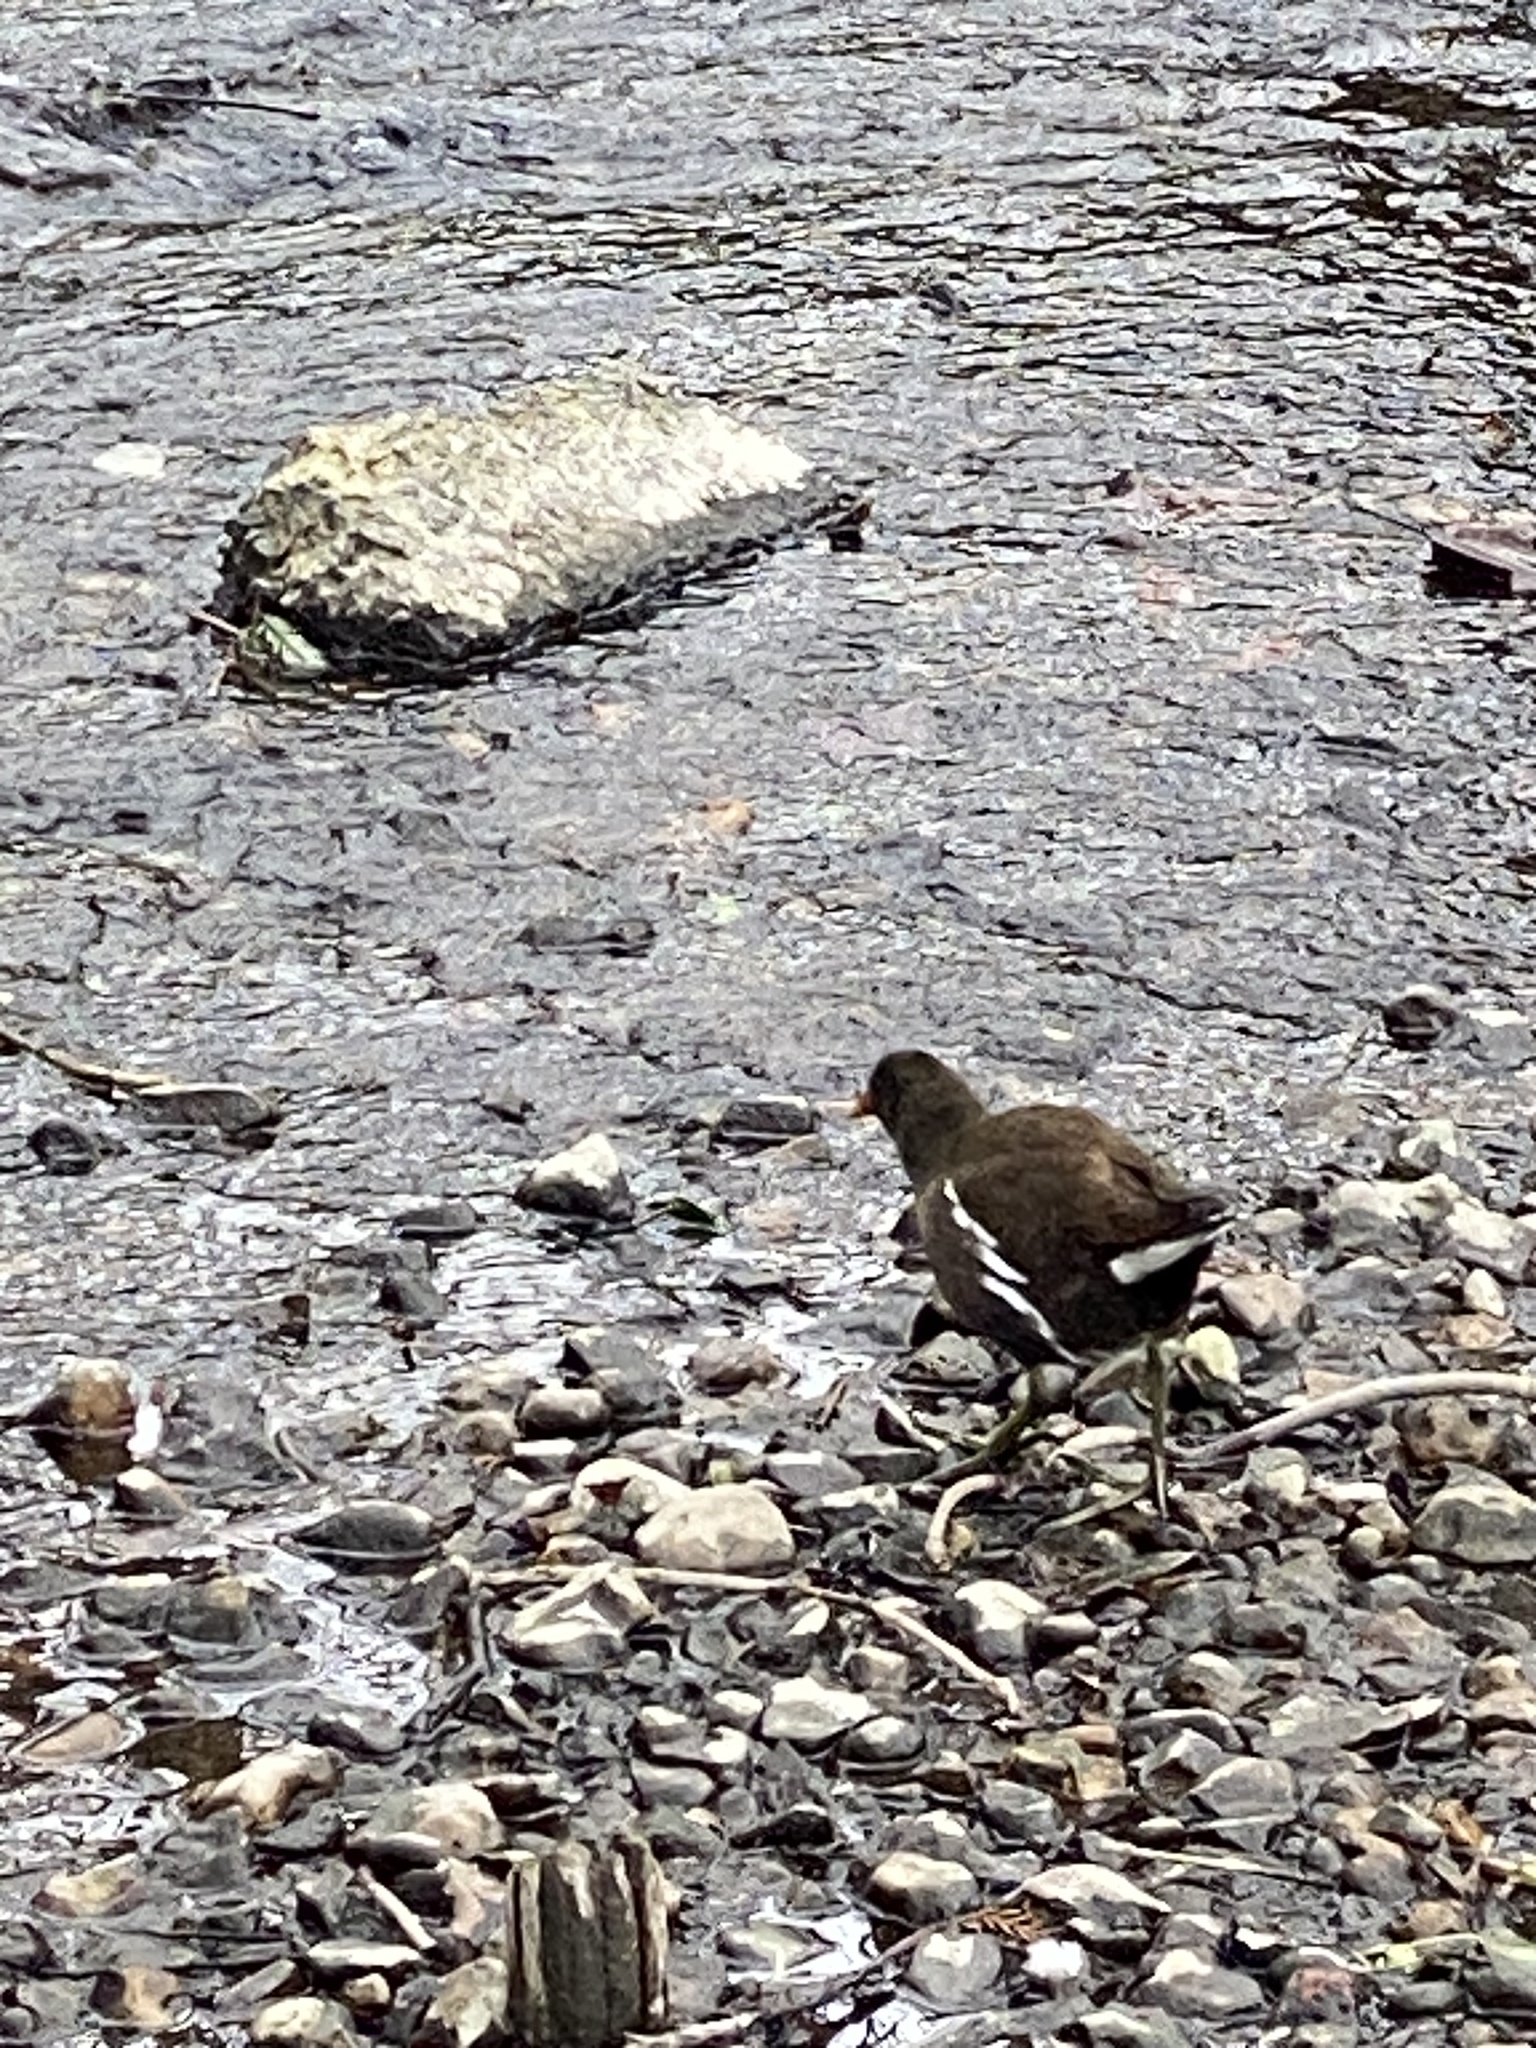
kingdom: Animalia
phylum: Chordata
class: Aves
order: Gruiformes
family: Rallidae
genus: Gallinula
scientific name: Gallinula chloropus
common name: Common moorhen
